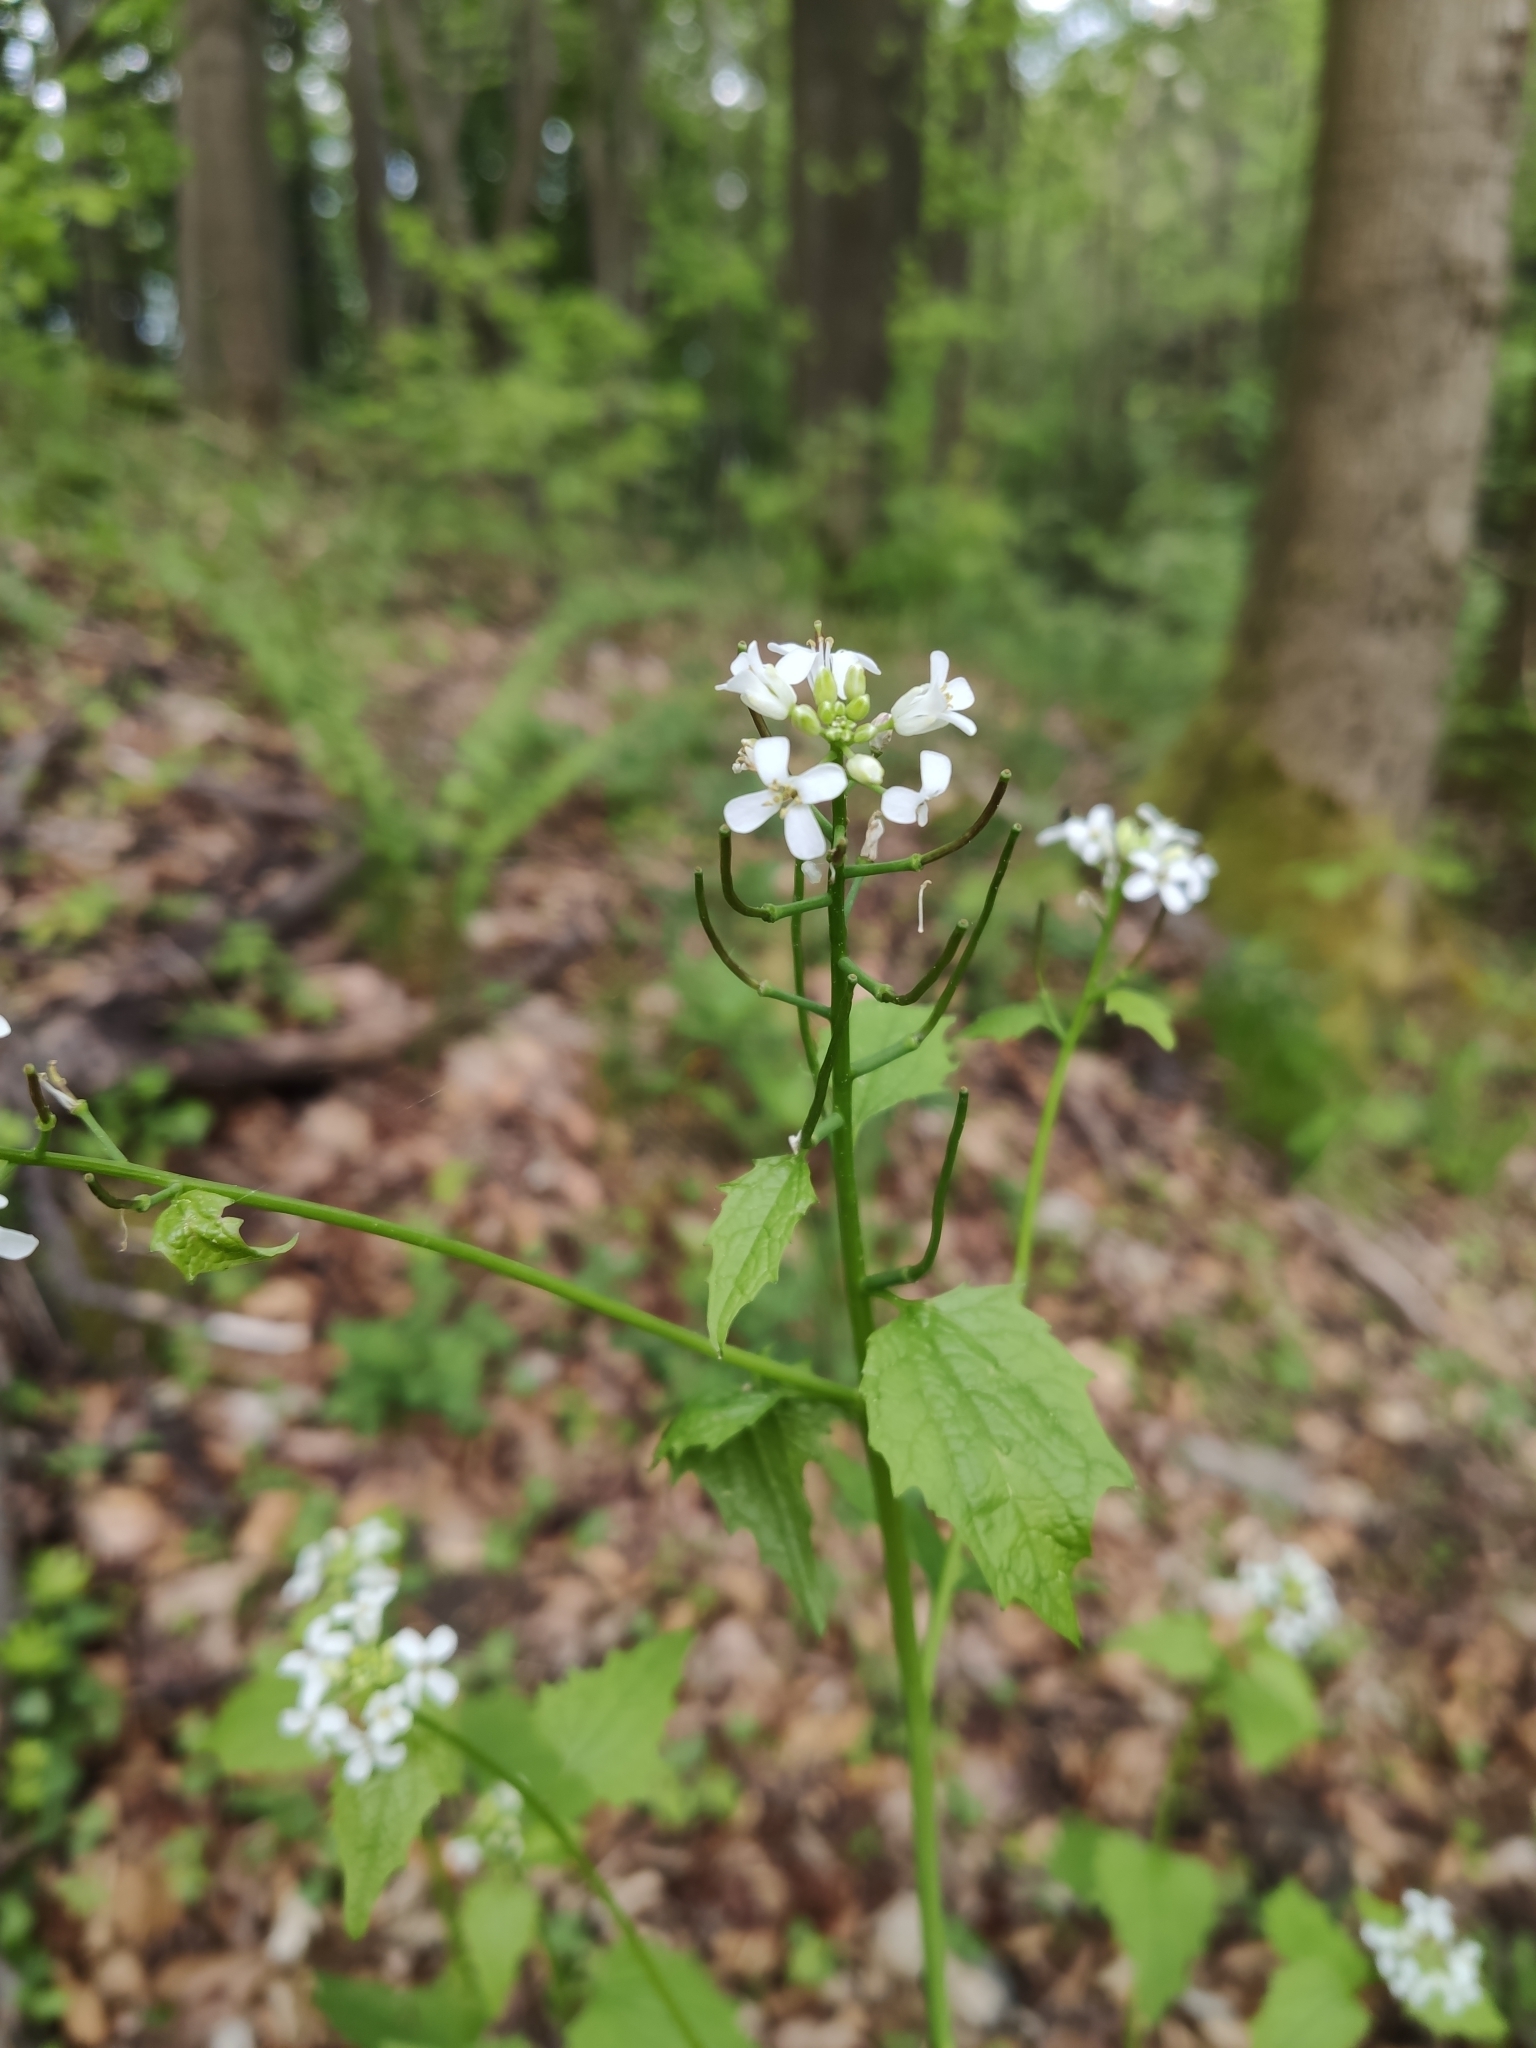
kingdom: Plantae
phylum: Tracheophyta
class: Magnoliopsida
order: Brassicales
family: Brassicaceae
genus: Alliaria
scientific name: Alliaria petiolata
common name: Garlic mustard
